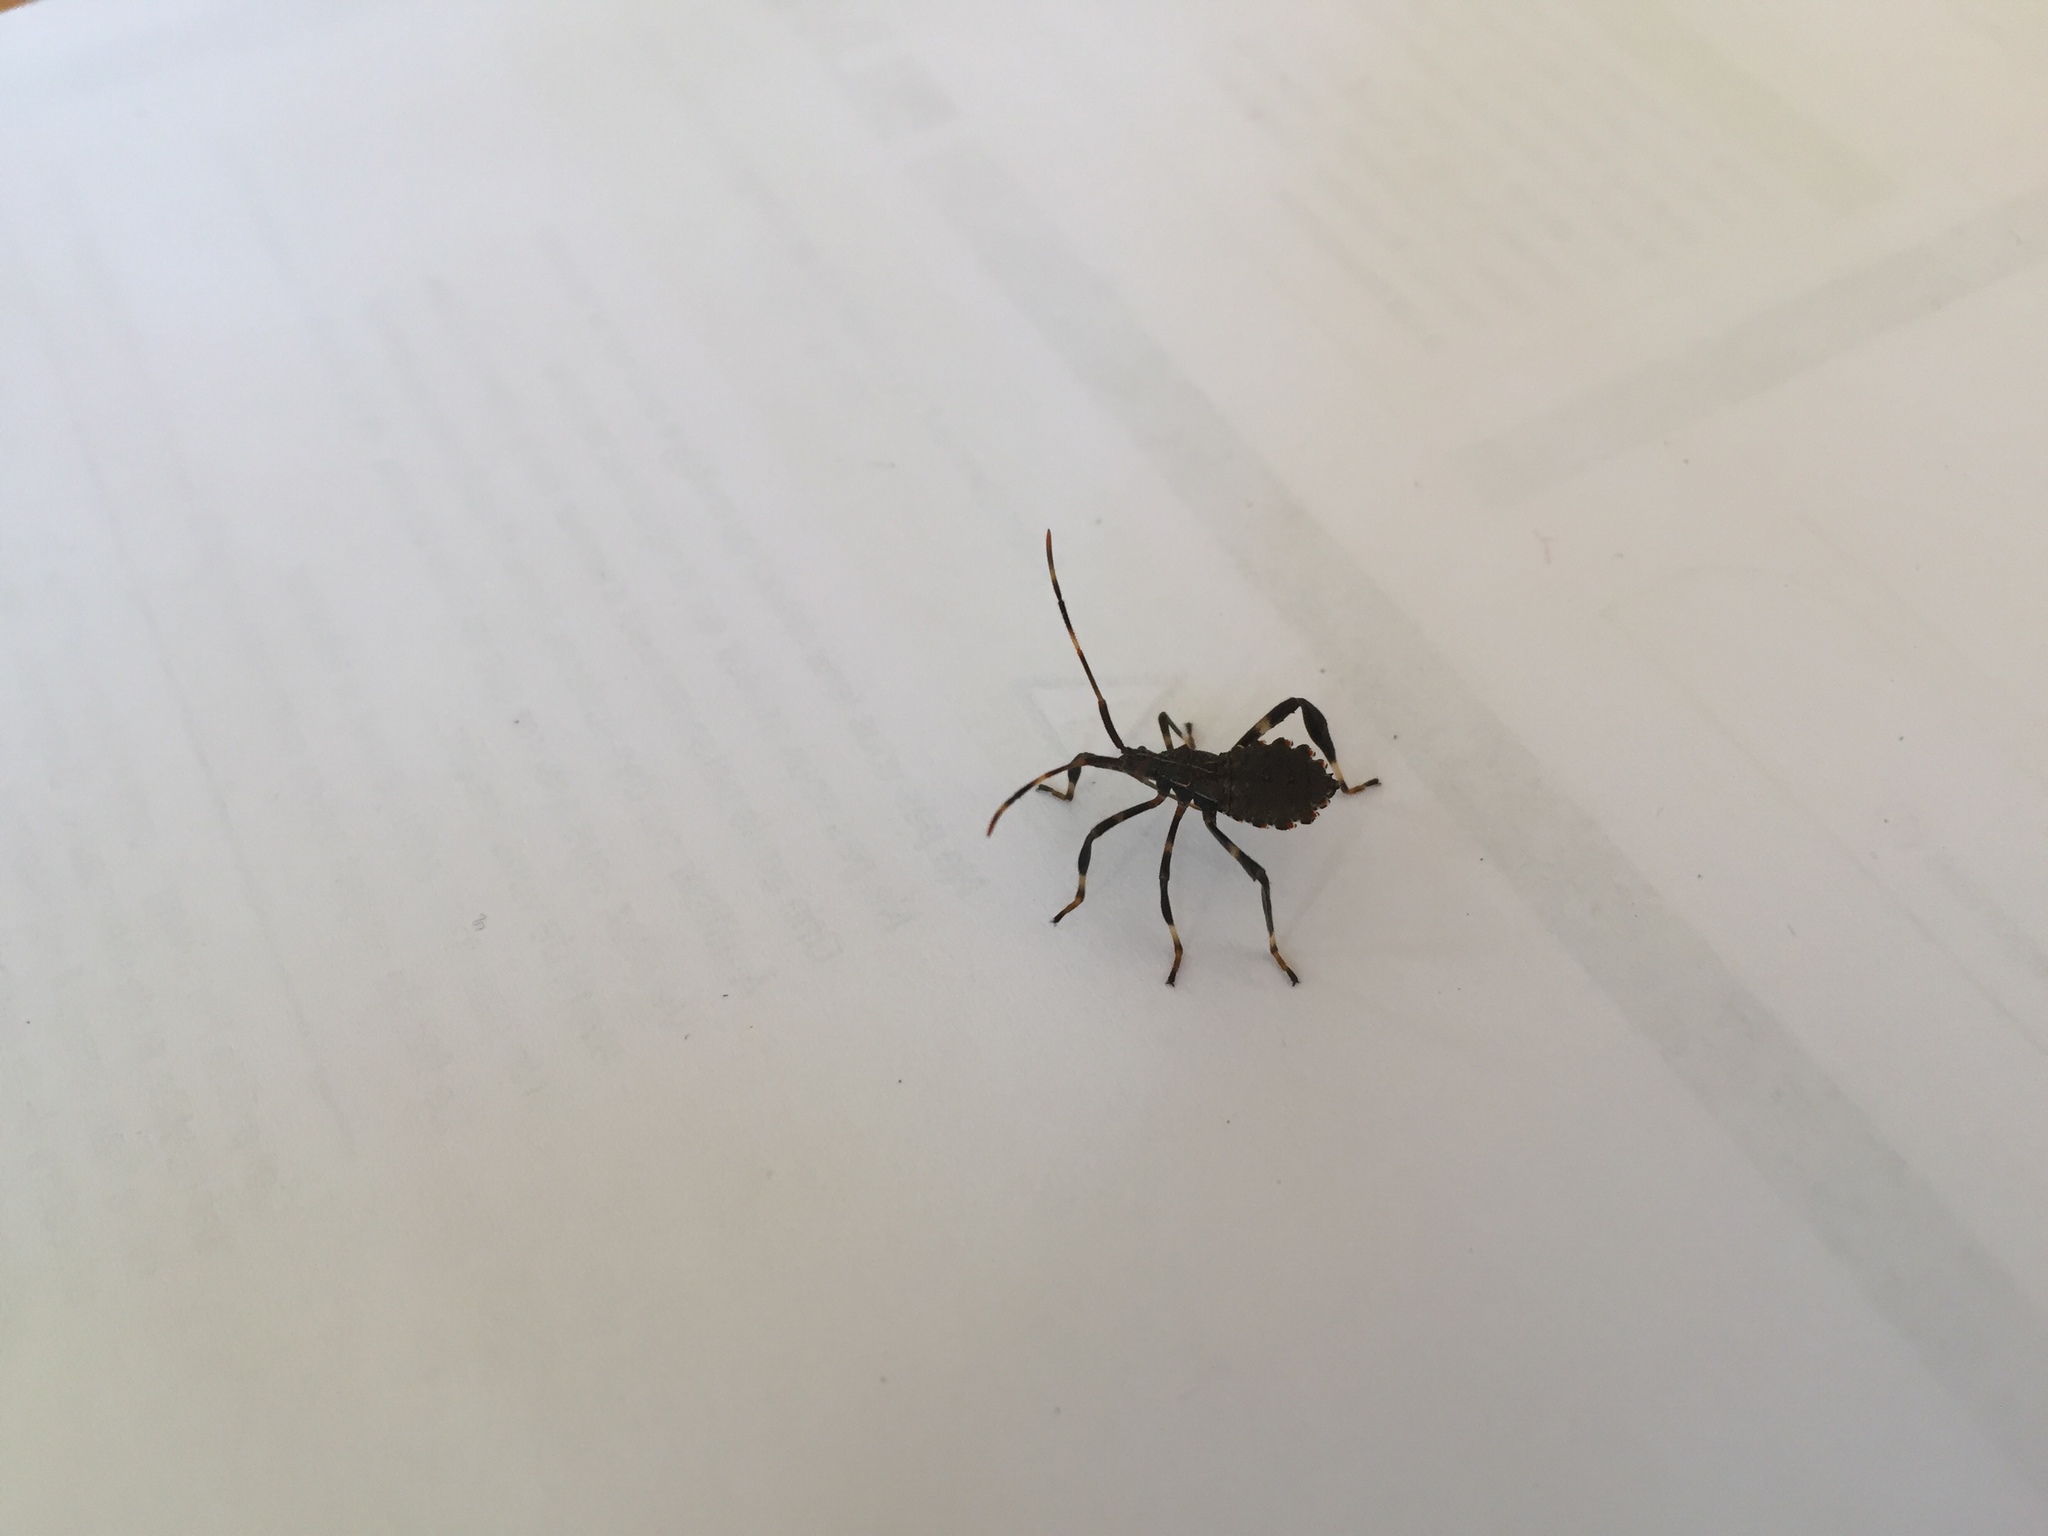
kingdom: Animalia
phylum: Arthropoda
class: Insecta
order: Hemiptera
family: Coreidae
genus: Acanthocephala
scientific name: Acanthocephala terminalis
